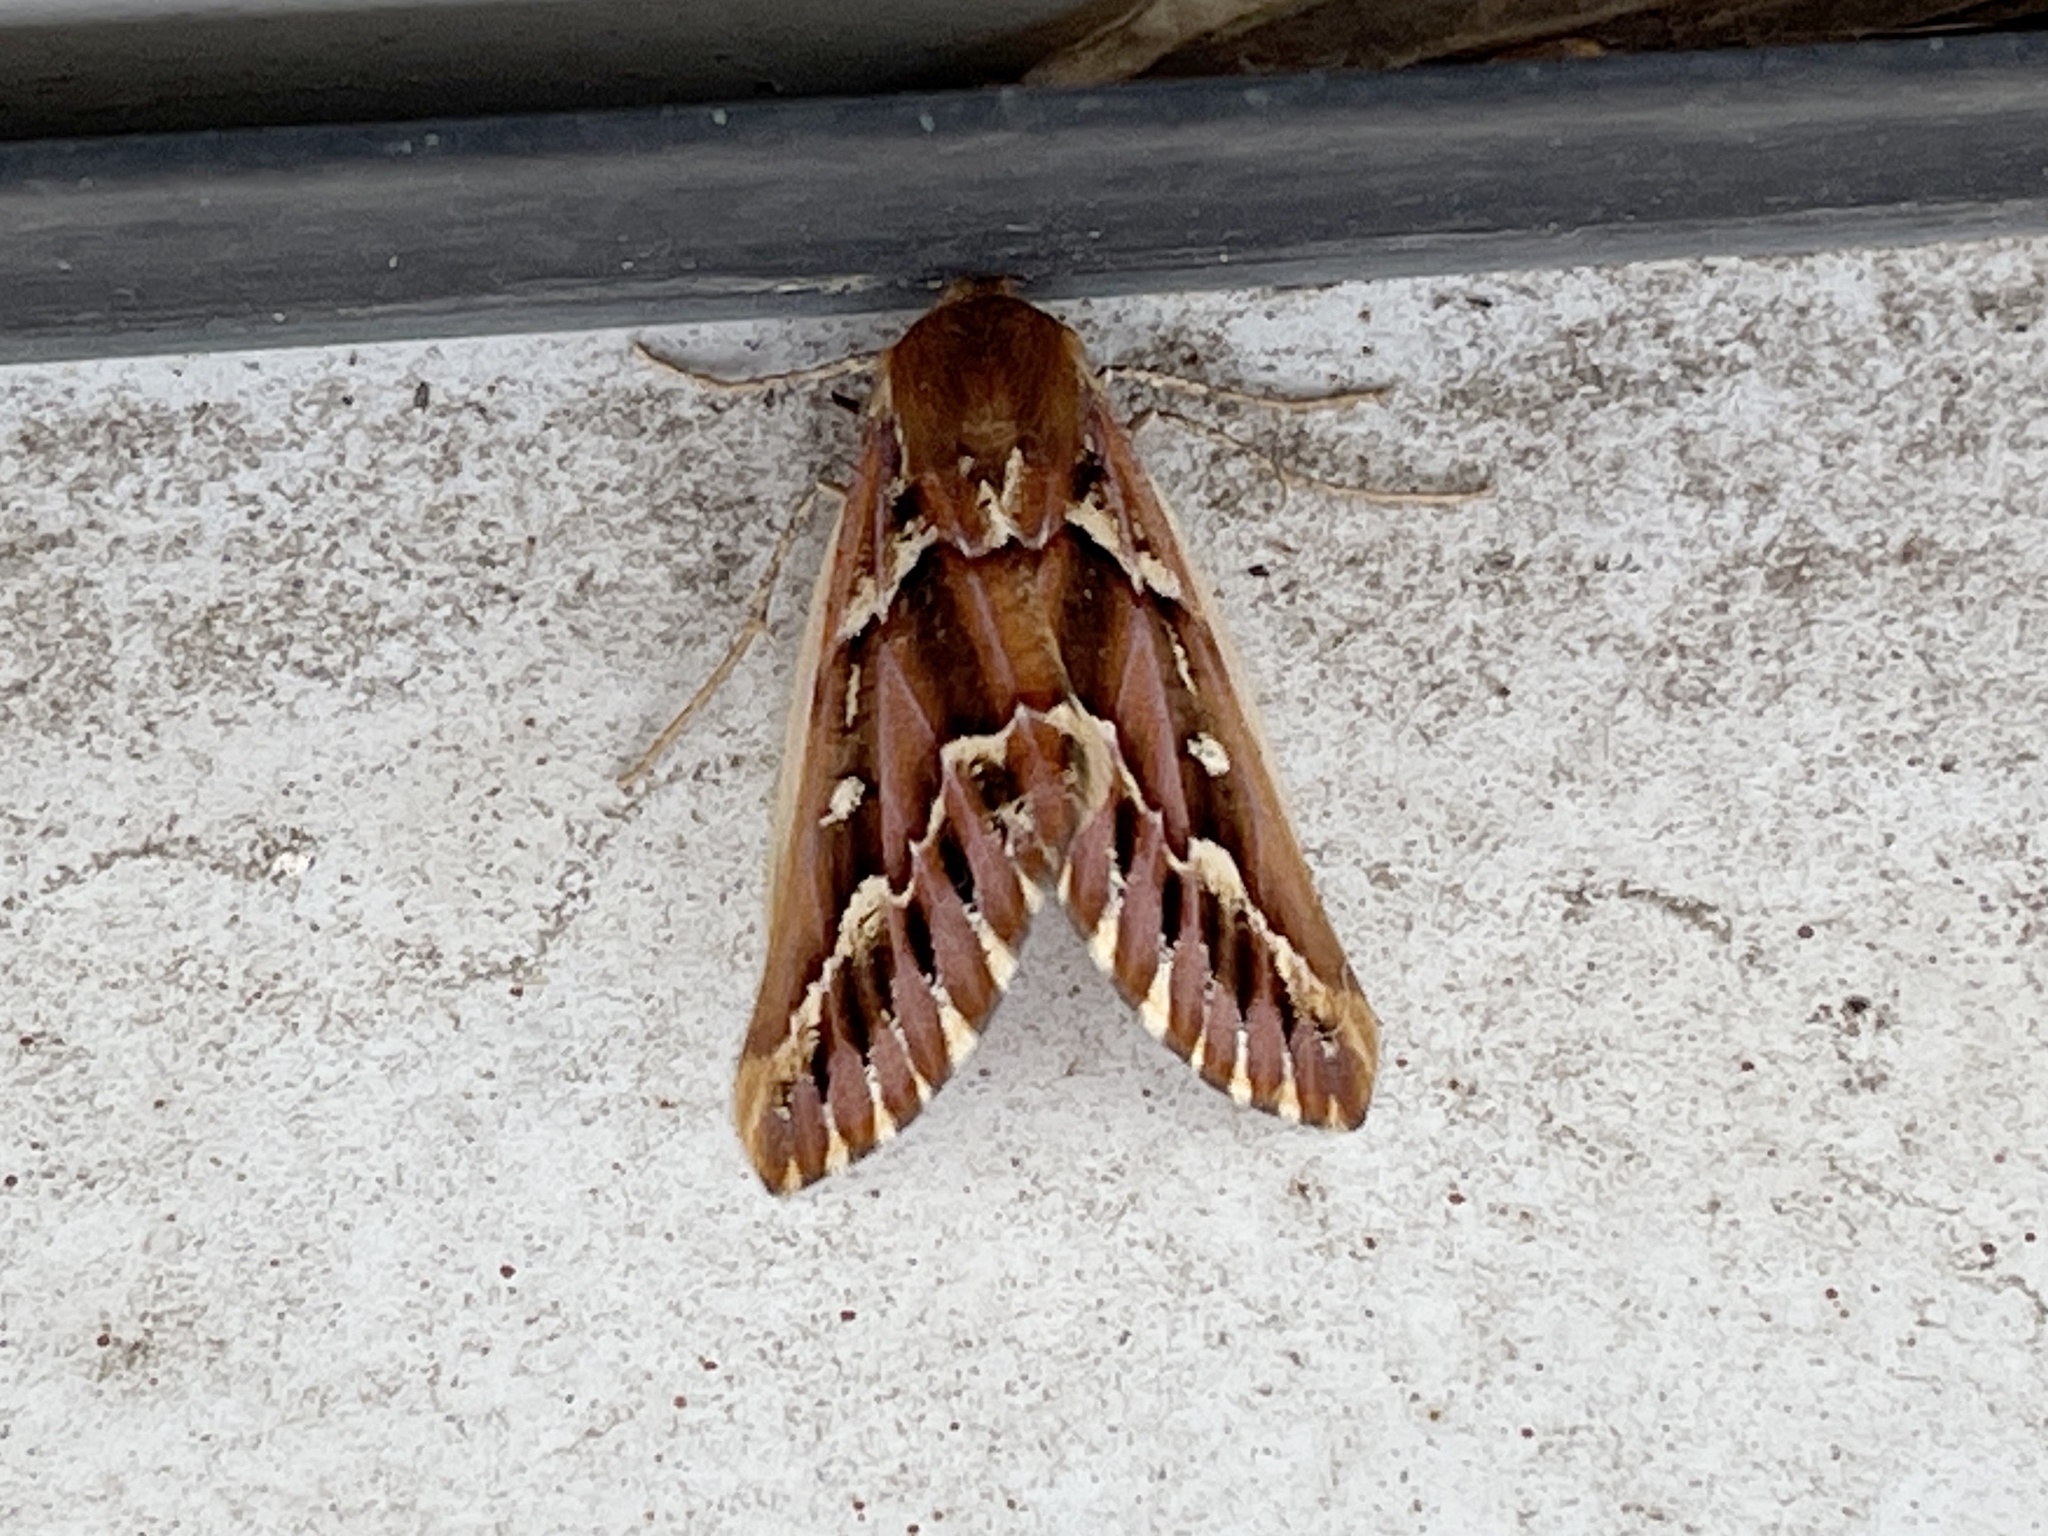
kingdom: Animalia
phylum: Arthropoda
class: Insecta
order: Lepidoptera
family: Geometridae
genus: Caripeta
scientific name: Caripeta aequaliaria
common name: Red girdle moth
